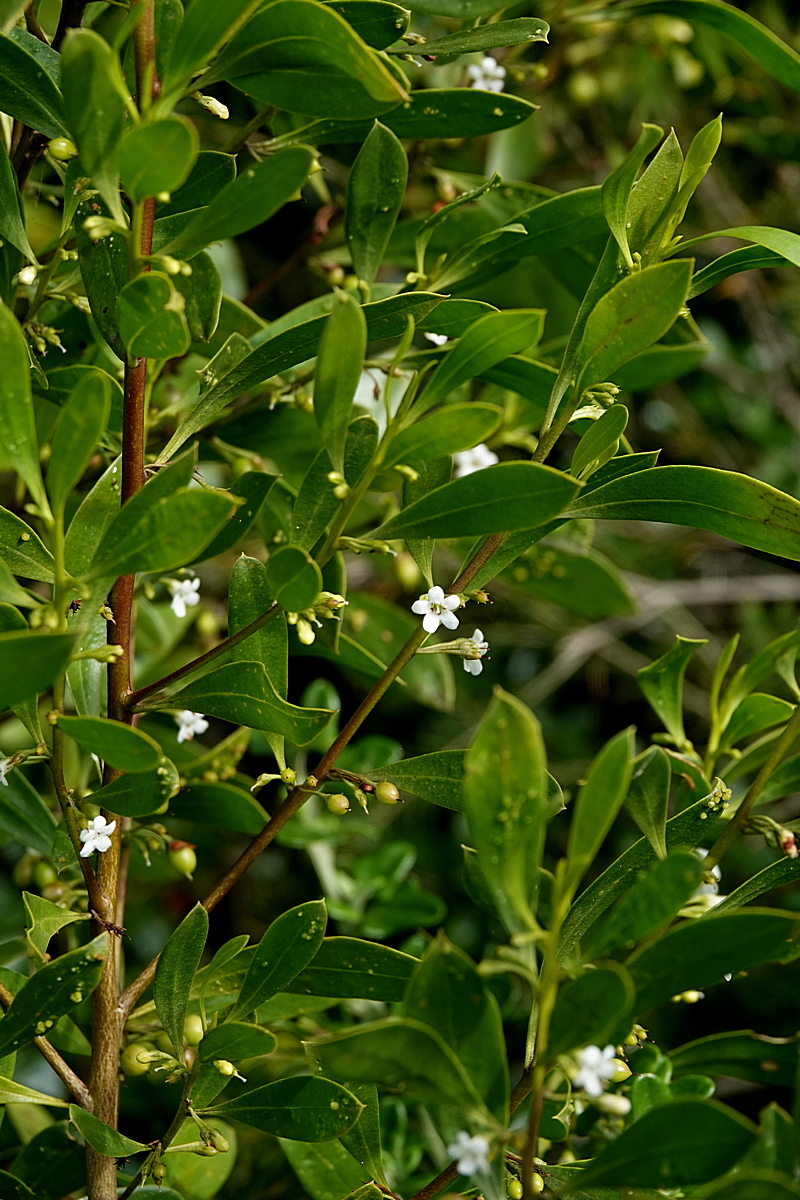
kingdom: Plantae
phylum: Tracheophyta
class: Magnoliopsida
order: Lamiales
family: Scrophulariaceae
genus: Myoporum
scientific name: Myoporum boninense
